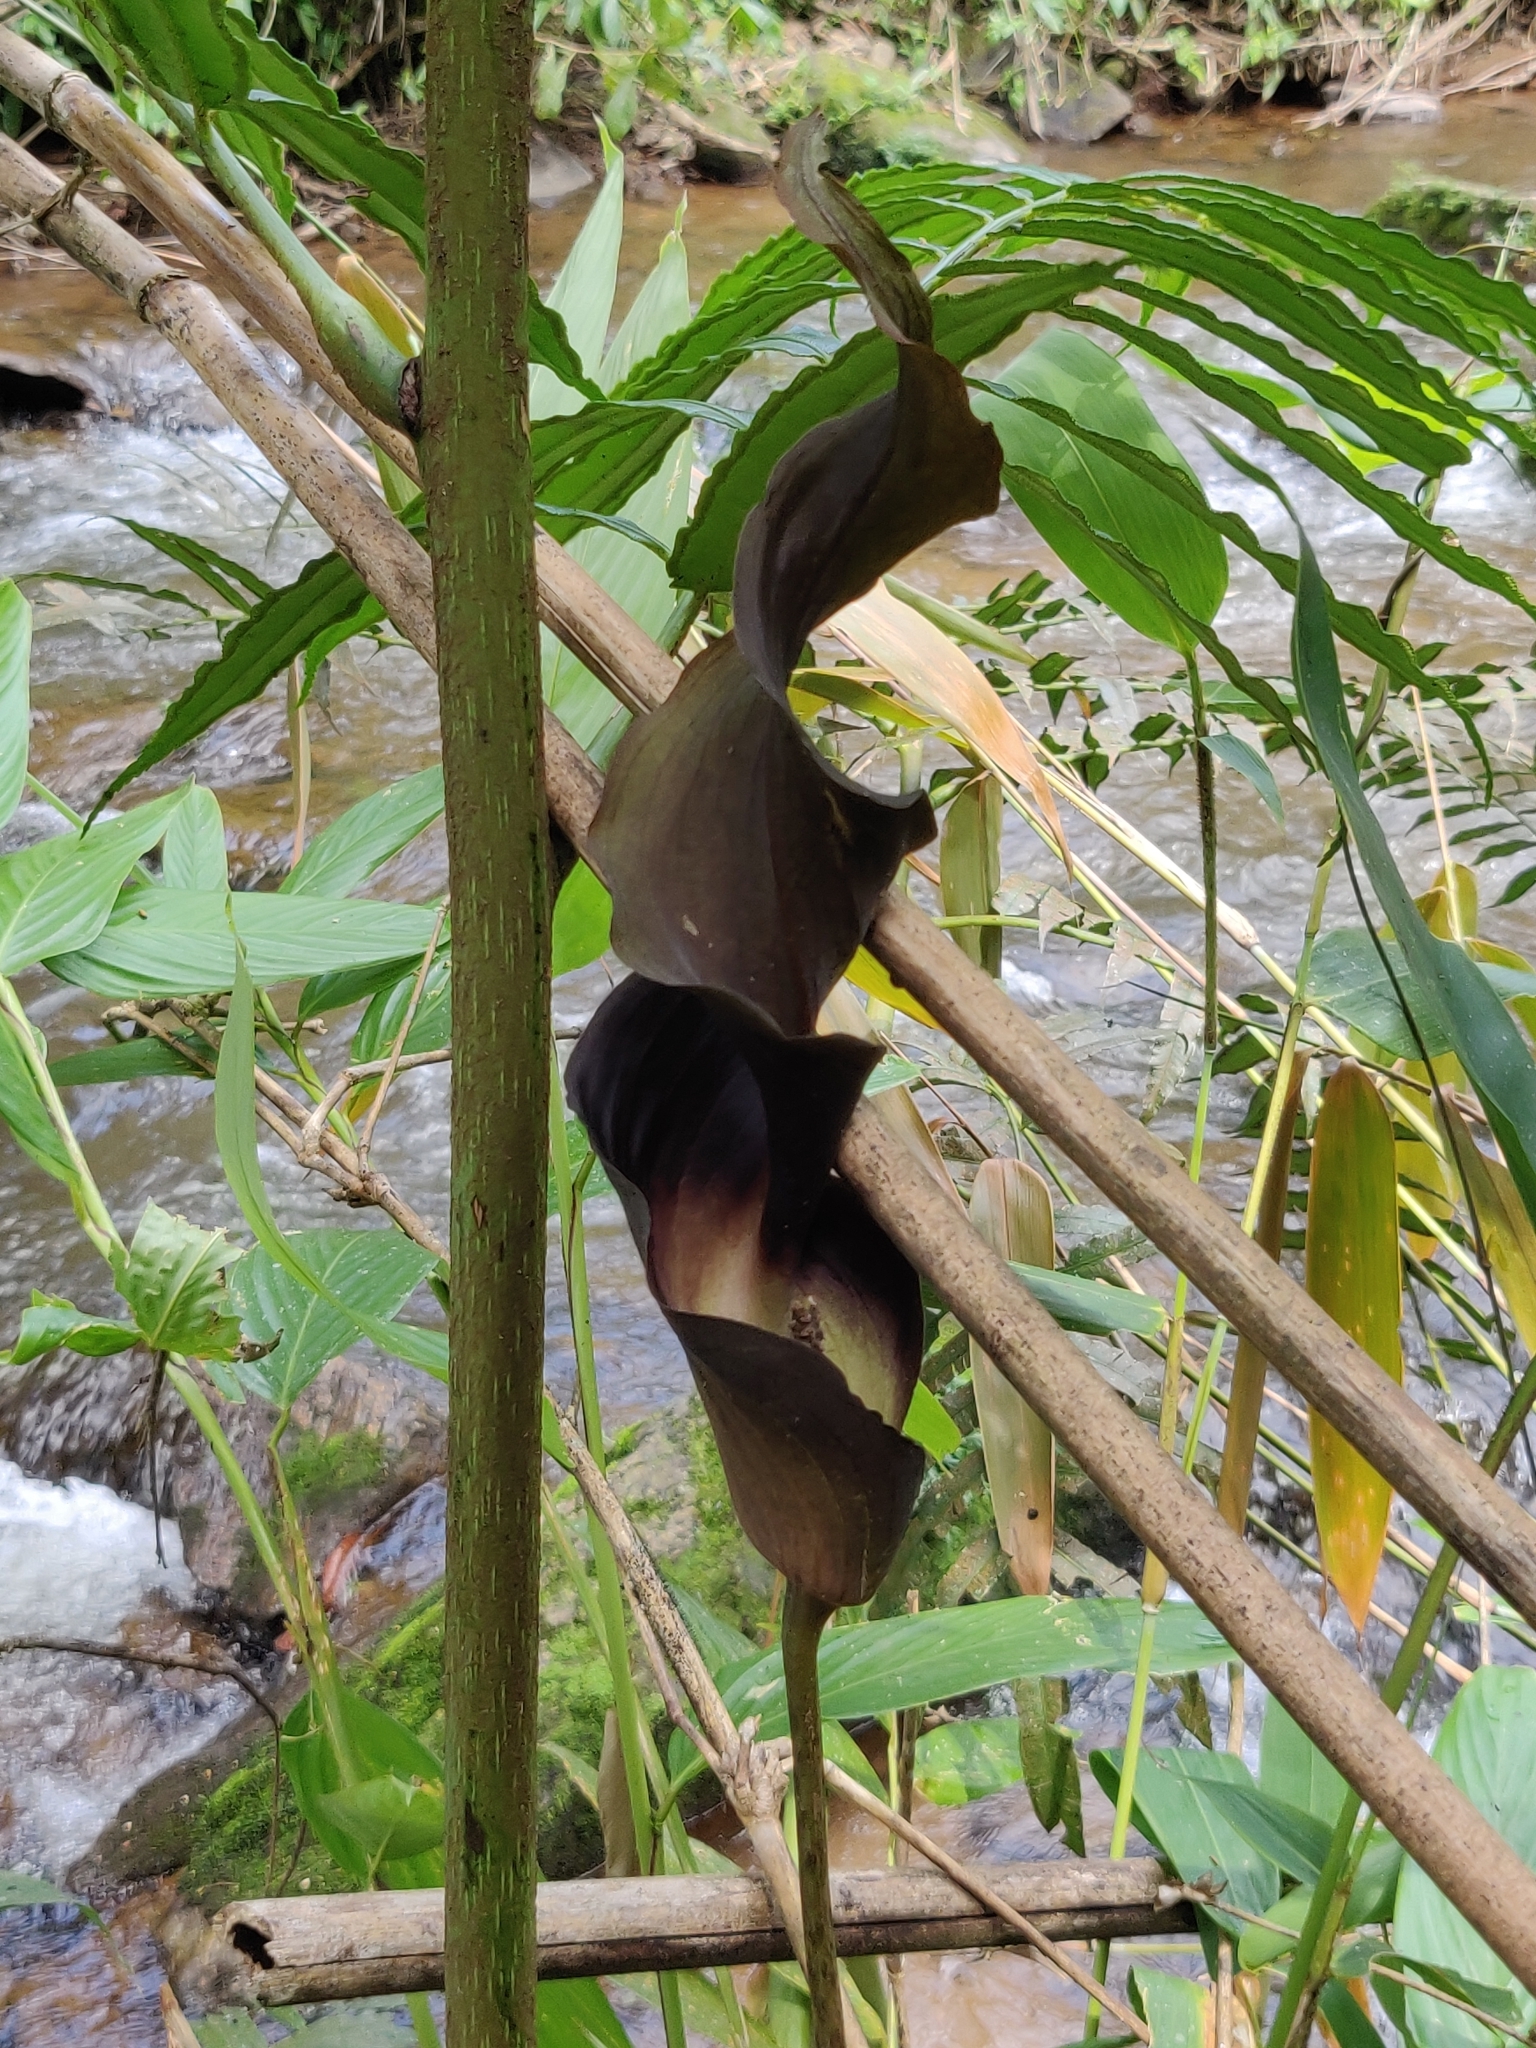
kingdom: Plantae
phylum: Tracheophyta
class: Liliopsida
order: Alismatales
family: Araceae
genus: Anaphyllum
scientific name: Anaphyllum wightii
